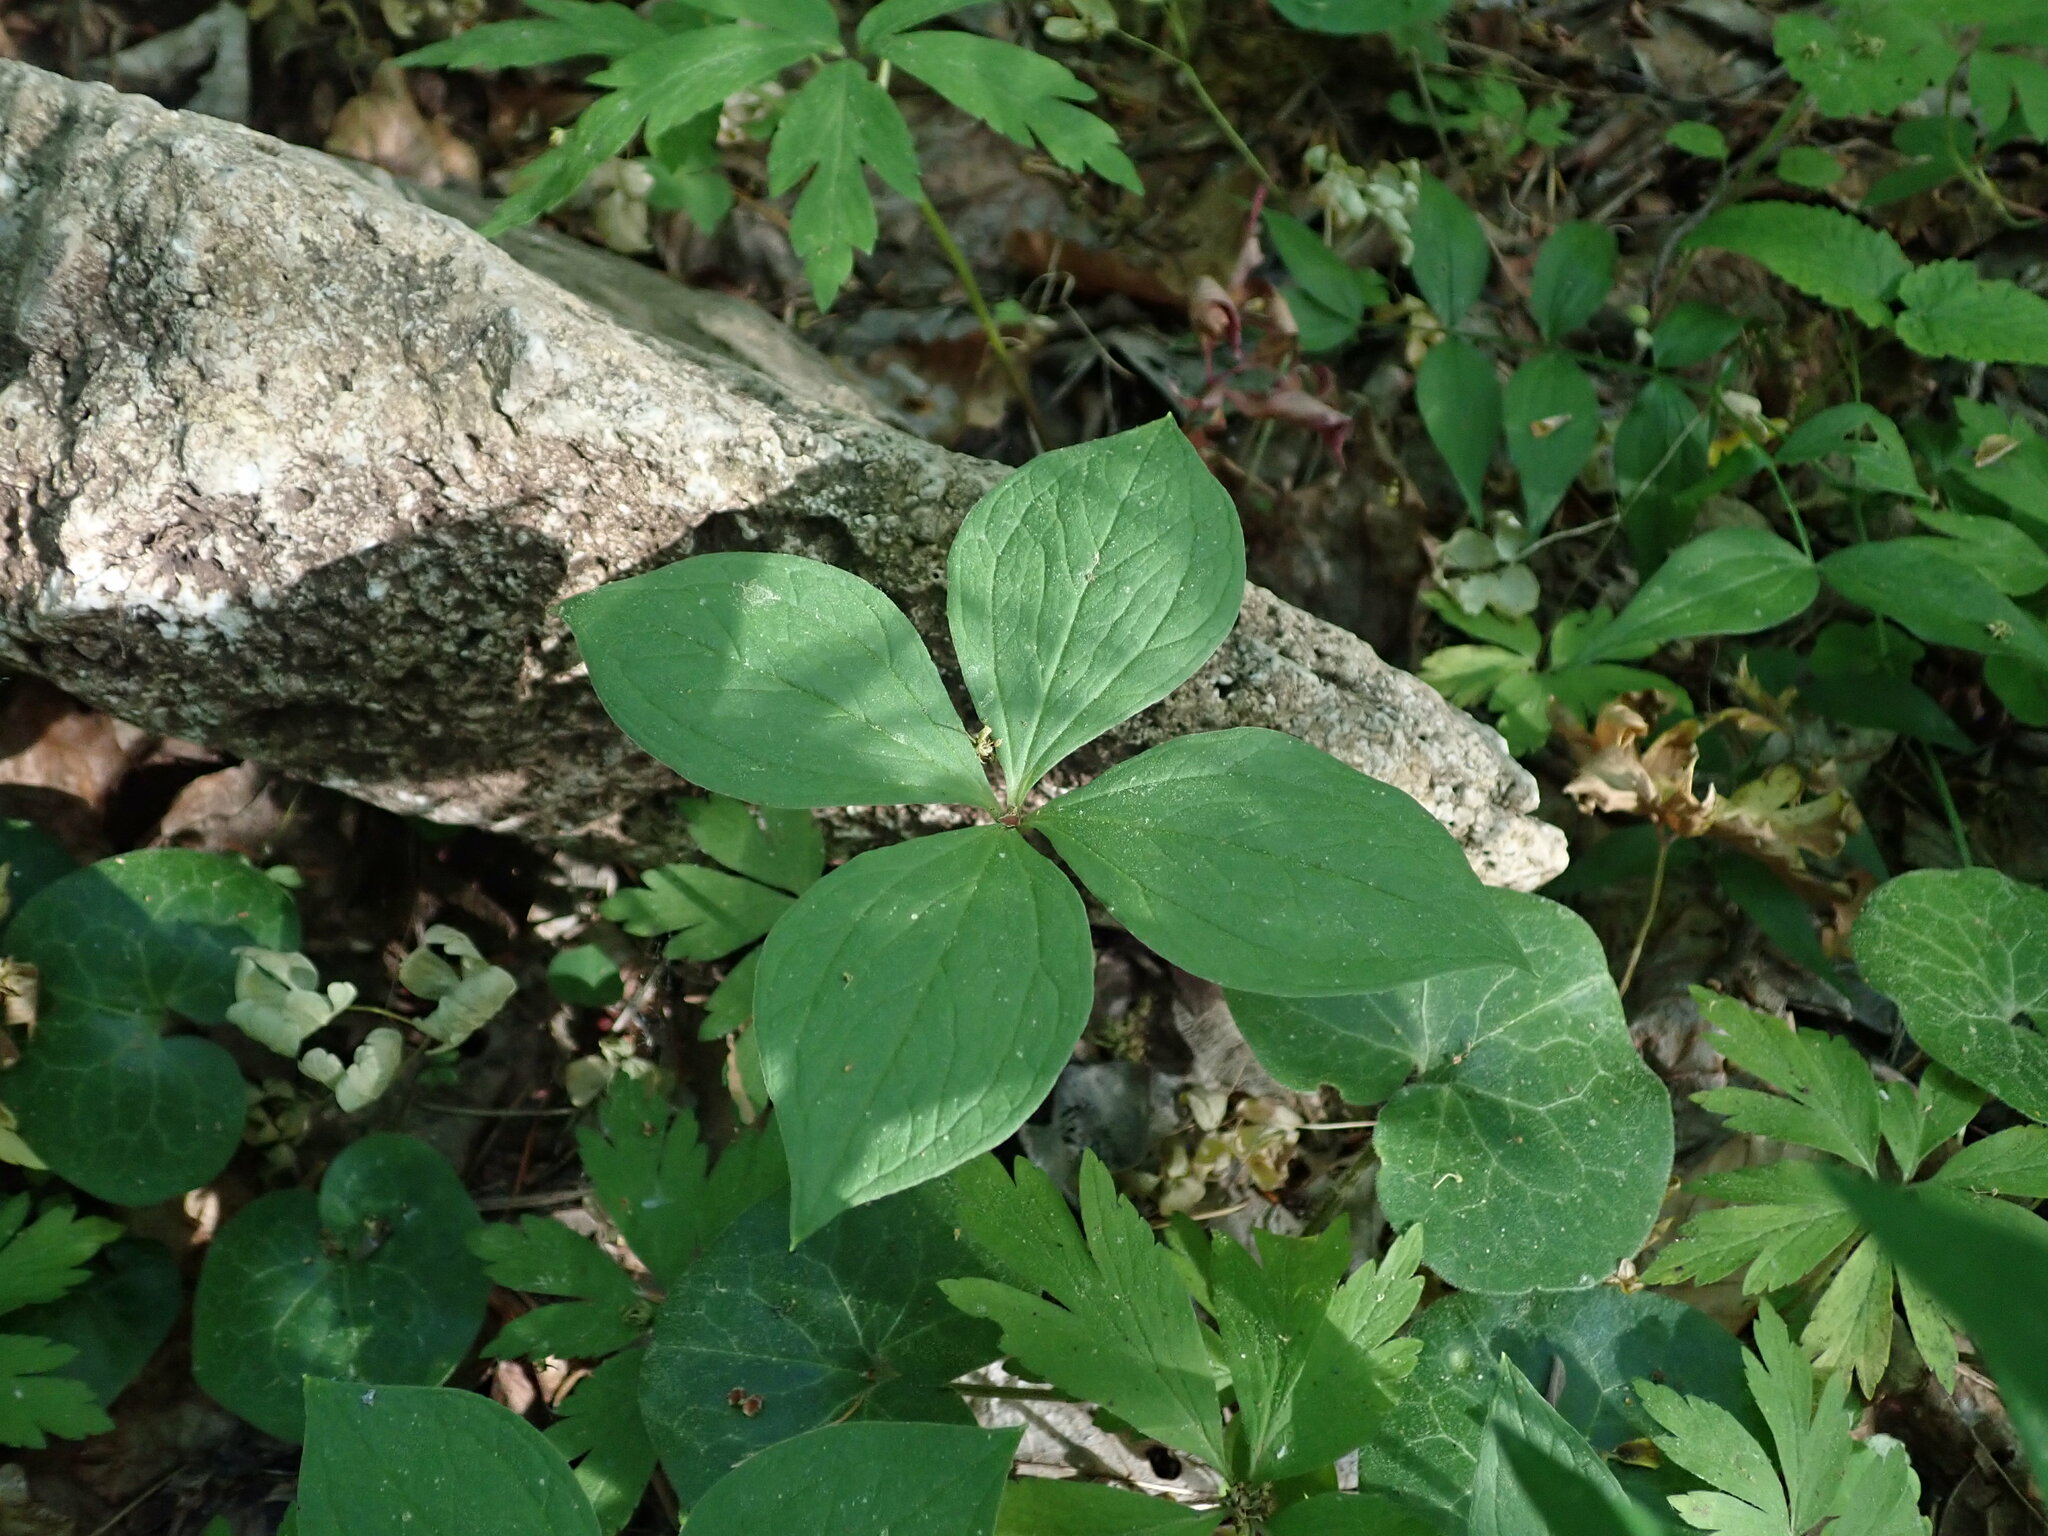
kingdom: Plantae
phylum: Tracheophyta
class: Liliopsida
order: Liliales
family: Melanthiaceae
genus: Paris
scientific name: Paris quadrifolia
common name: Herb-paris
